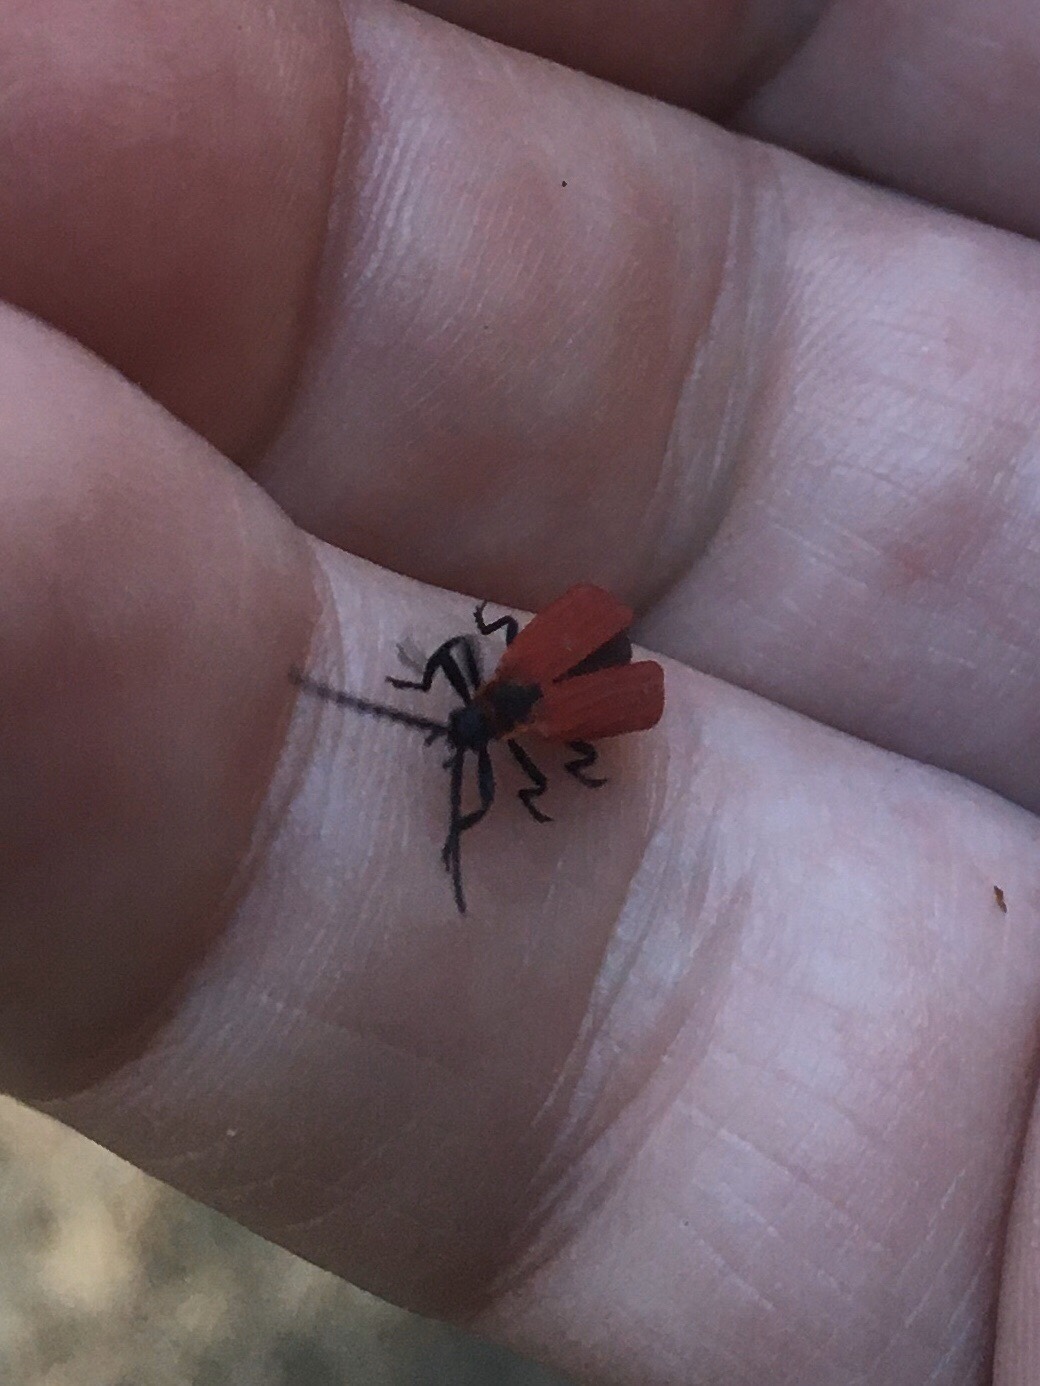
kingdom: Animalia
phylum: Arthropoda
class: Insecta
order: Coleoptera
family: Lycidae
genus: Dictyoptera
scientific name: Dictyoptera aurora
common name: Golden net-winged beetle
